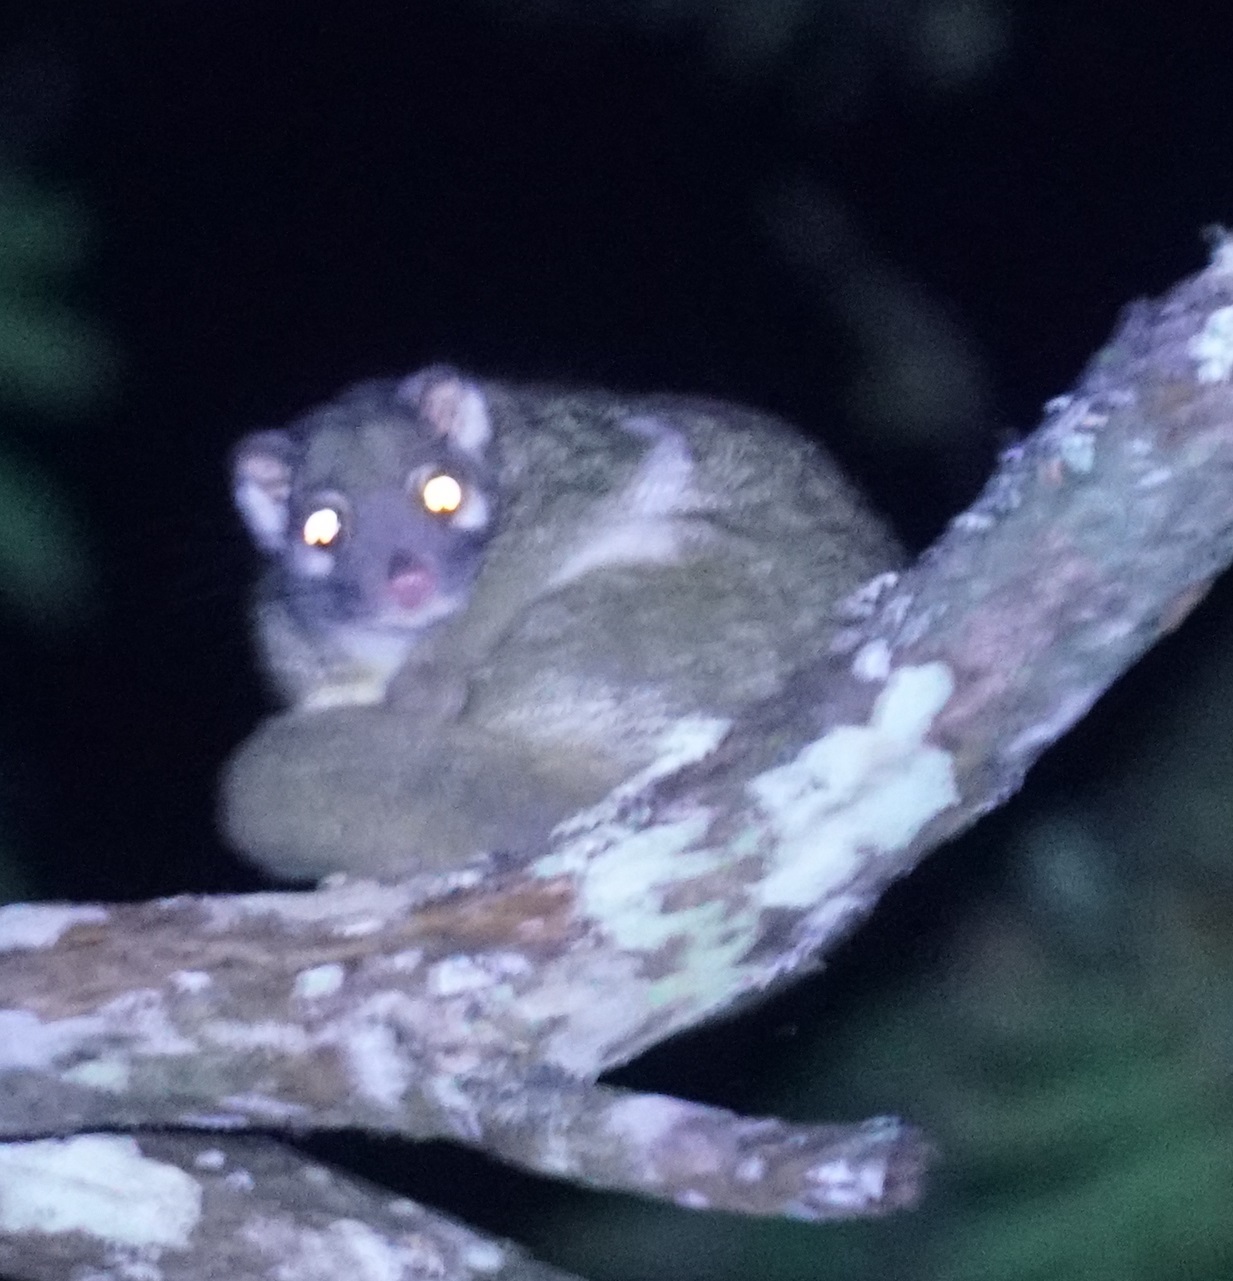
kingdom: Animalia
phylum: Chordata
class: Mammalia
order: Diprotodontia
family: Pseudocheiridae
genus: Pseudochirops
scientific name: Pseudochirops archeri
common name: Green ringtail
